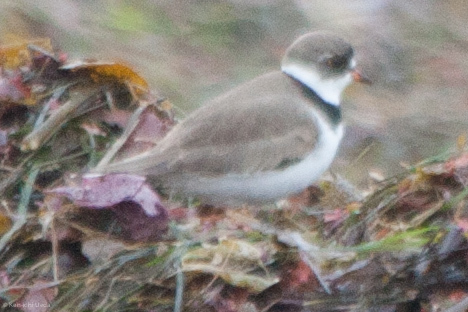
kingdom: Animalia
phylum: Chordata
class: Aves
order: Charadriiformes
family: Charadriidae
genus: Charadrius
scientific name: Charadrius semipalmatus
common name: Semipalmated plover
